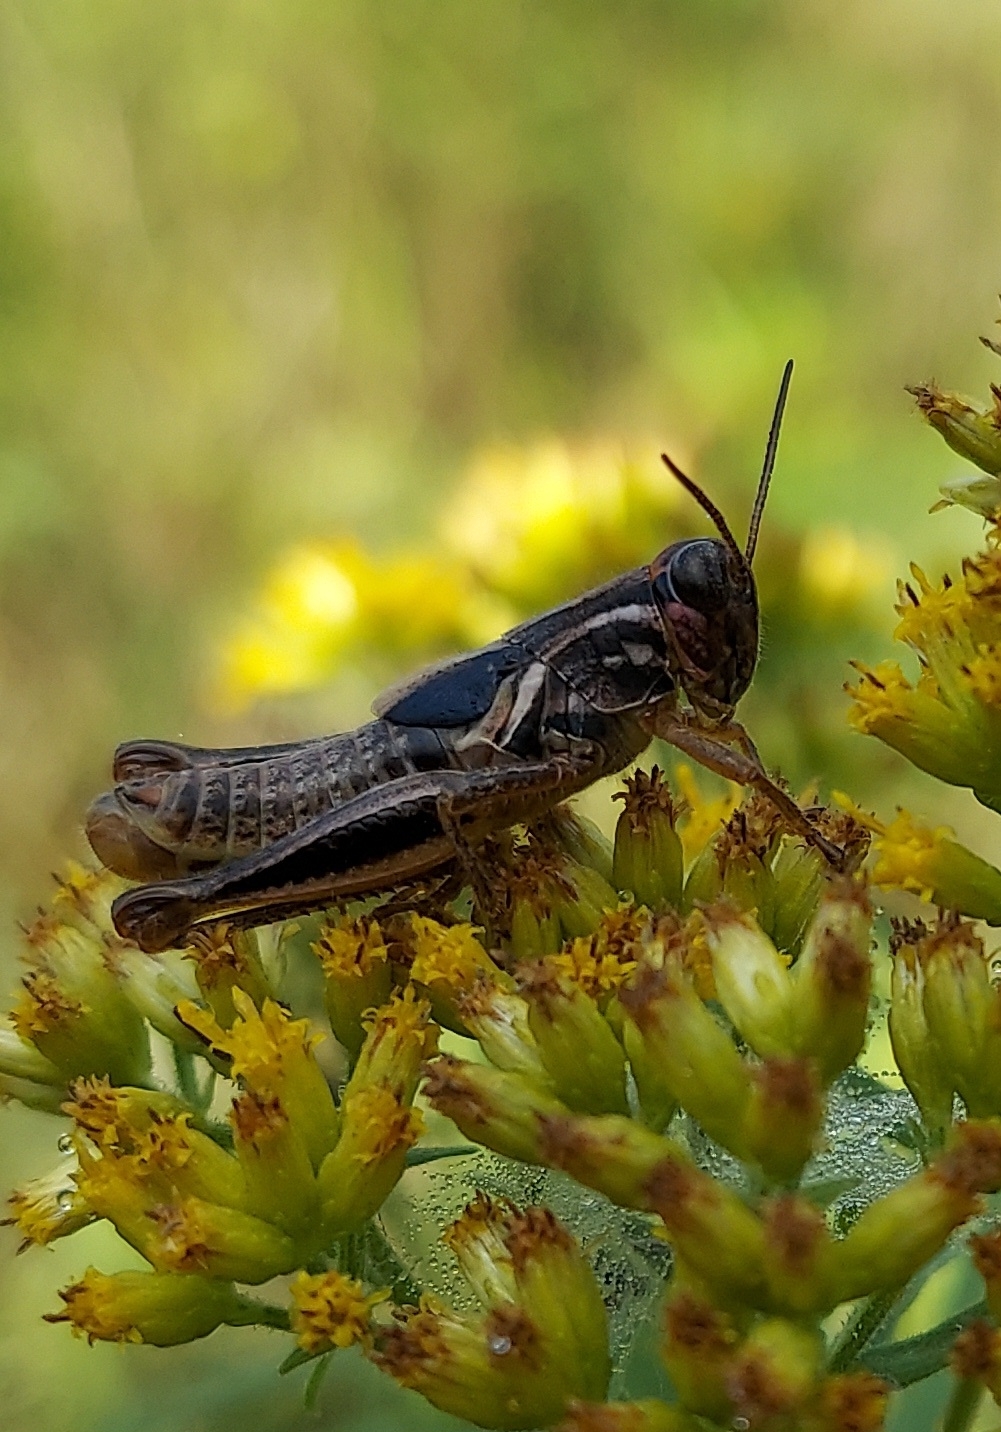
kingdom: Animalia
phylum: Arthropoda
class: Insecta
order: Orthoptera
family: Acrididae
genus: Melanoplus
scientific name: Melanoplus femurrubrum
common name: Red-legged grasshopper
